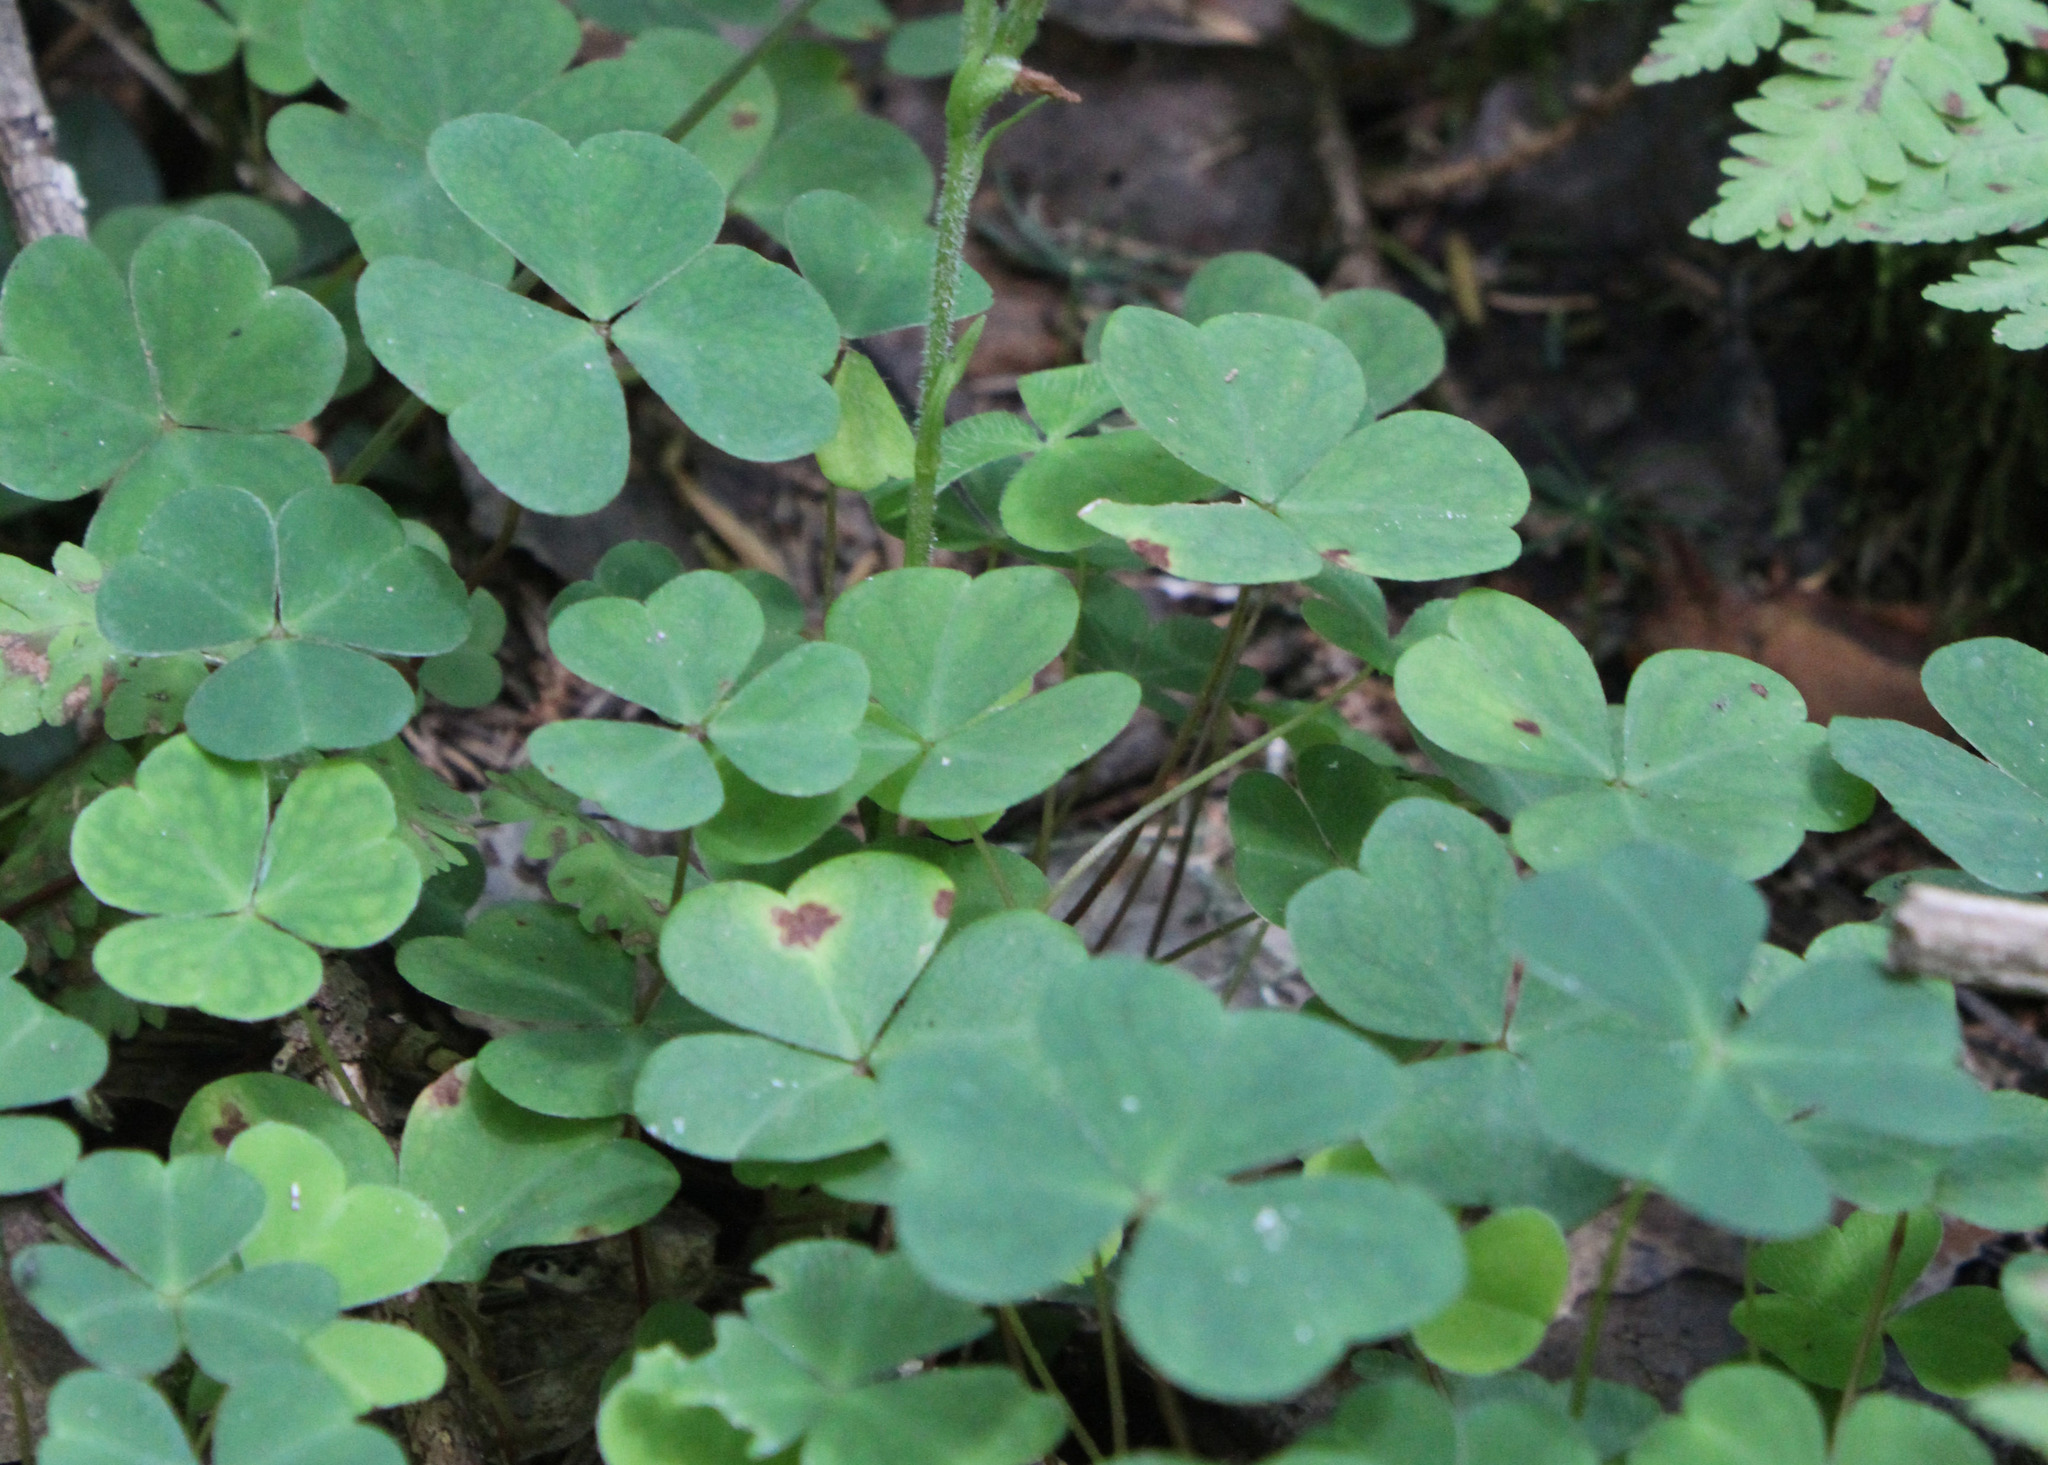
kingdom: Plantae
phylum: Tracheophyta
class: Magnoliopsida
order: Oxalidales
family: Oxalidaceae
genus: Oxalis
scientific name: Oxalis acetosella
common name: Wood-sorrel
